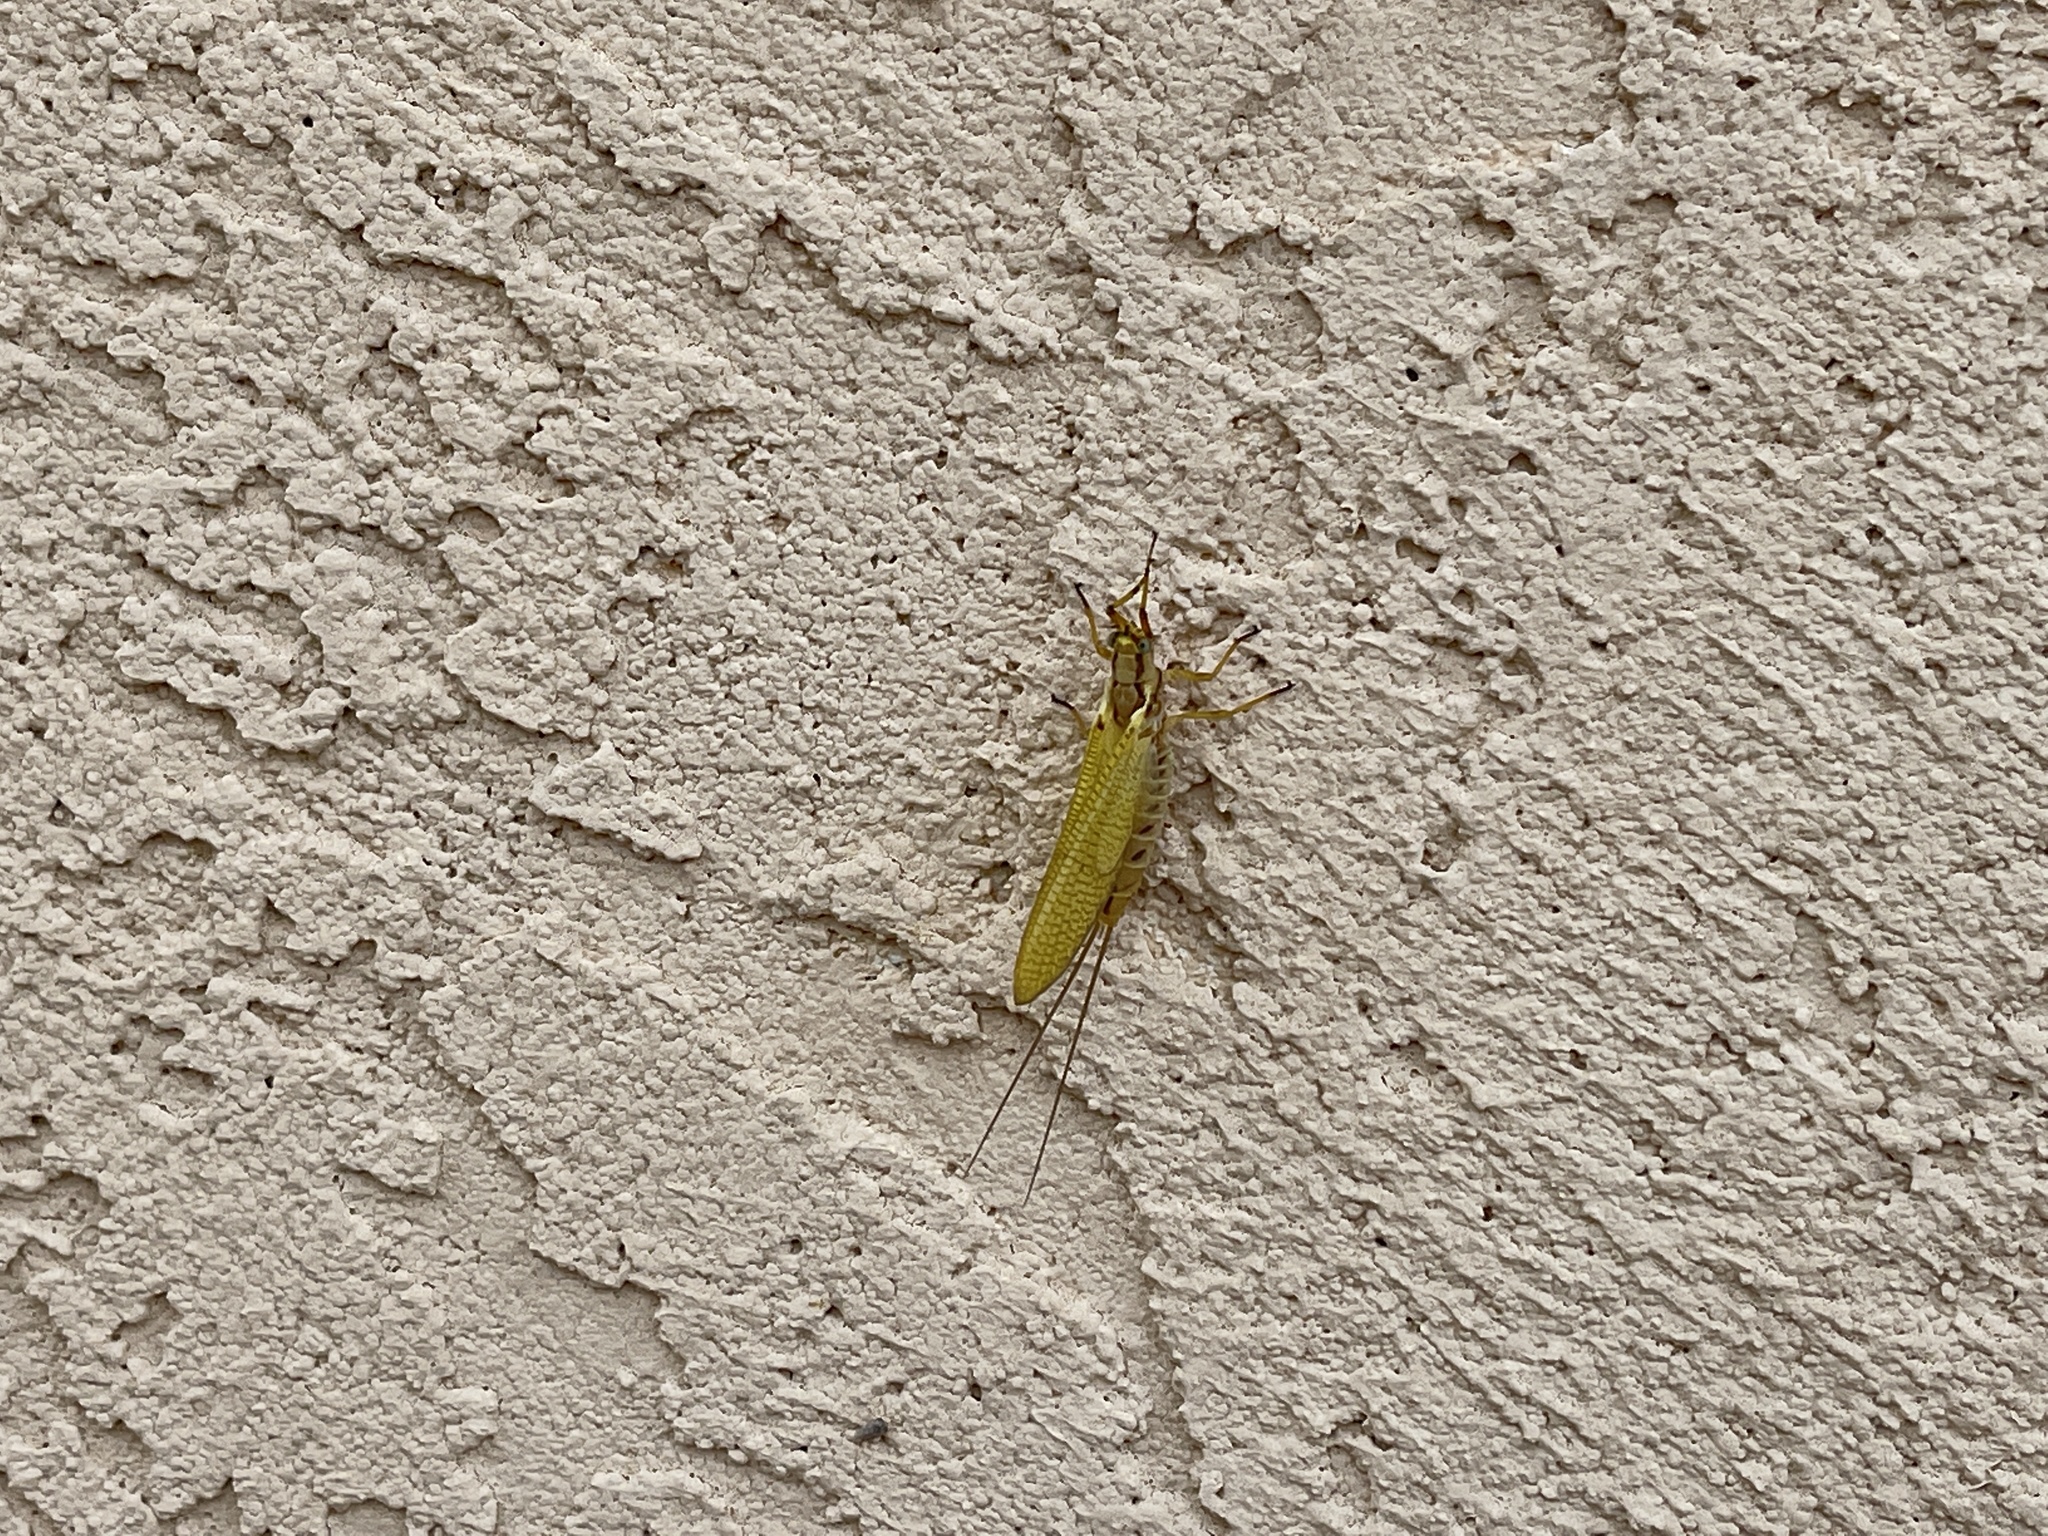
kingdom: Animalia
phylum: Arthropoda
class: Insecta
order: Ephemeroptera
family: Ephemeridae
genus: Hexagenia
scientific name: Hexagenia limbata
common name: Giant mayfly
